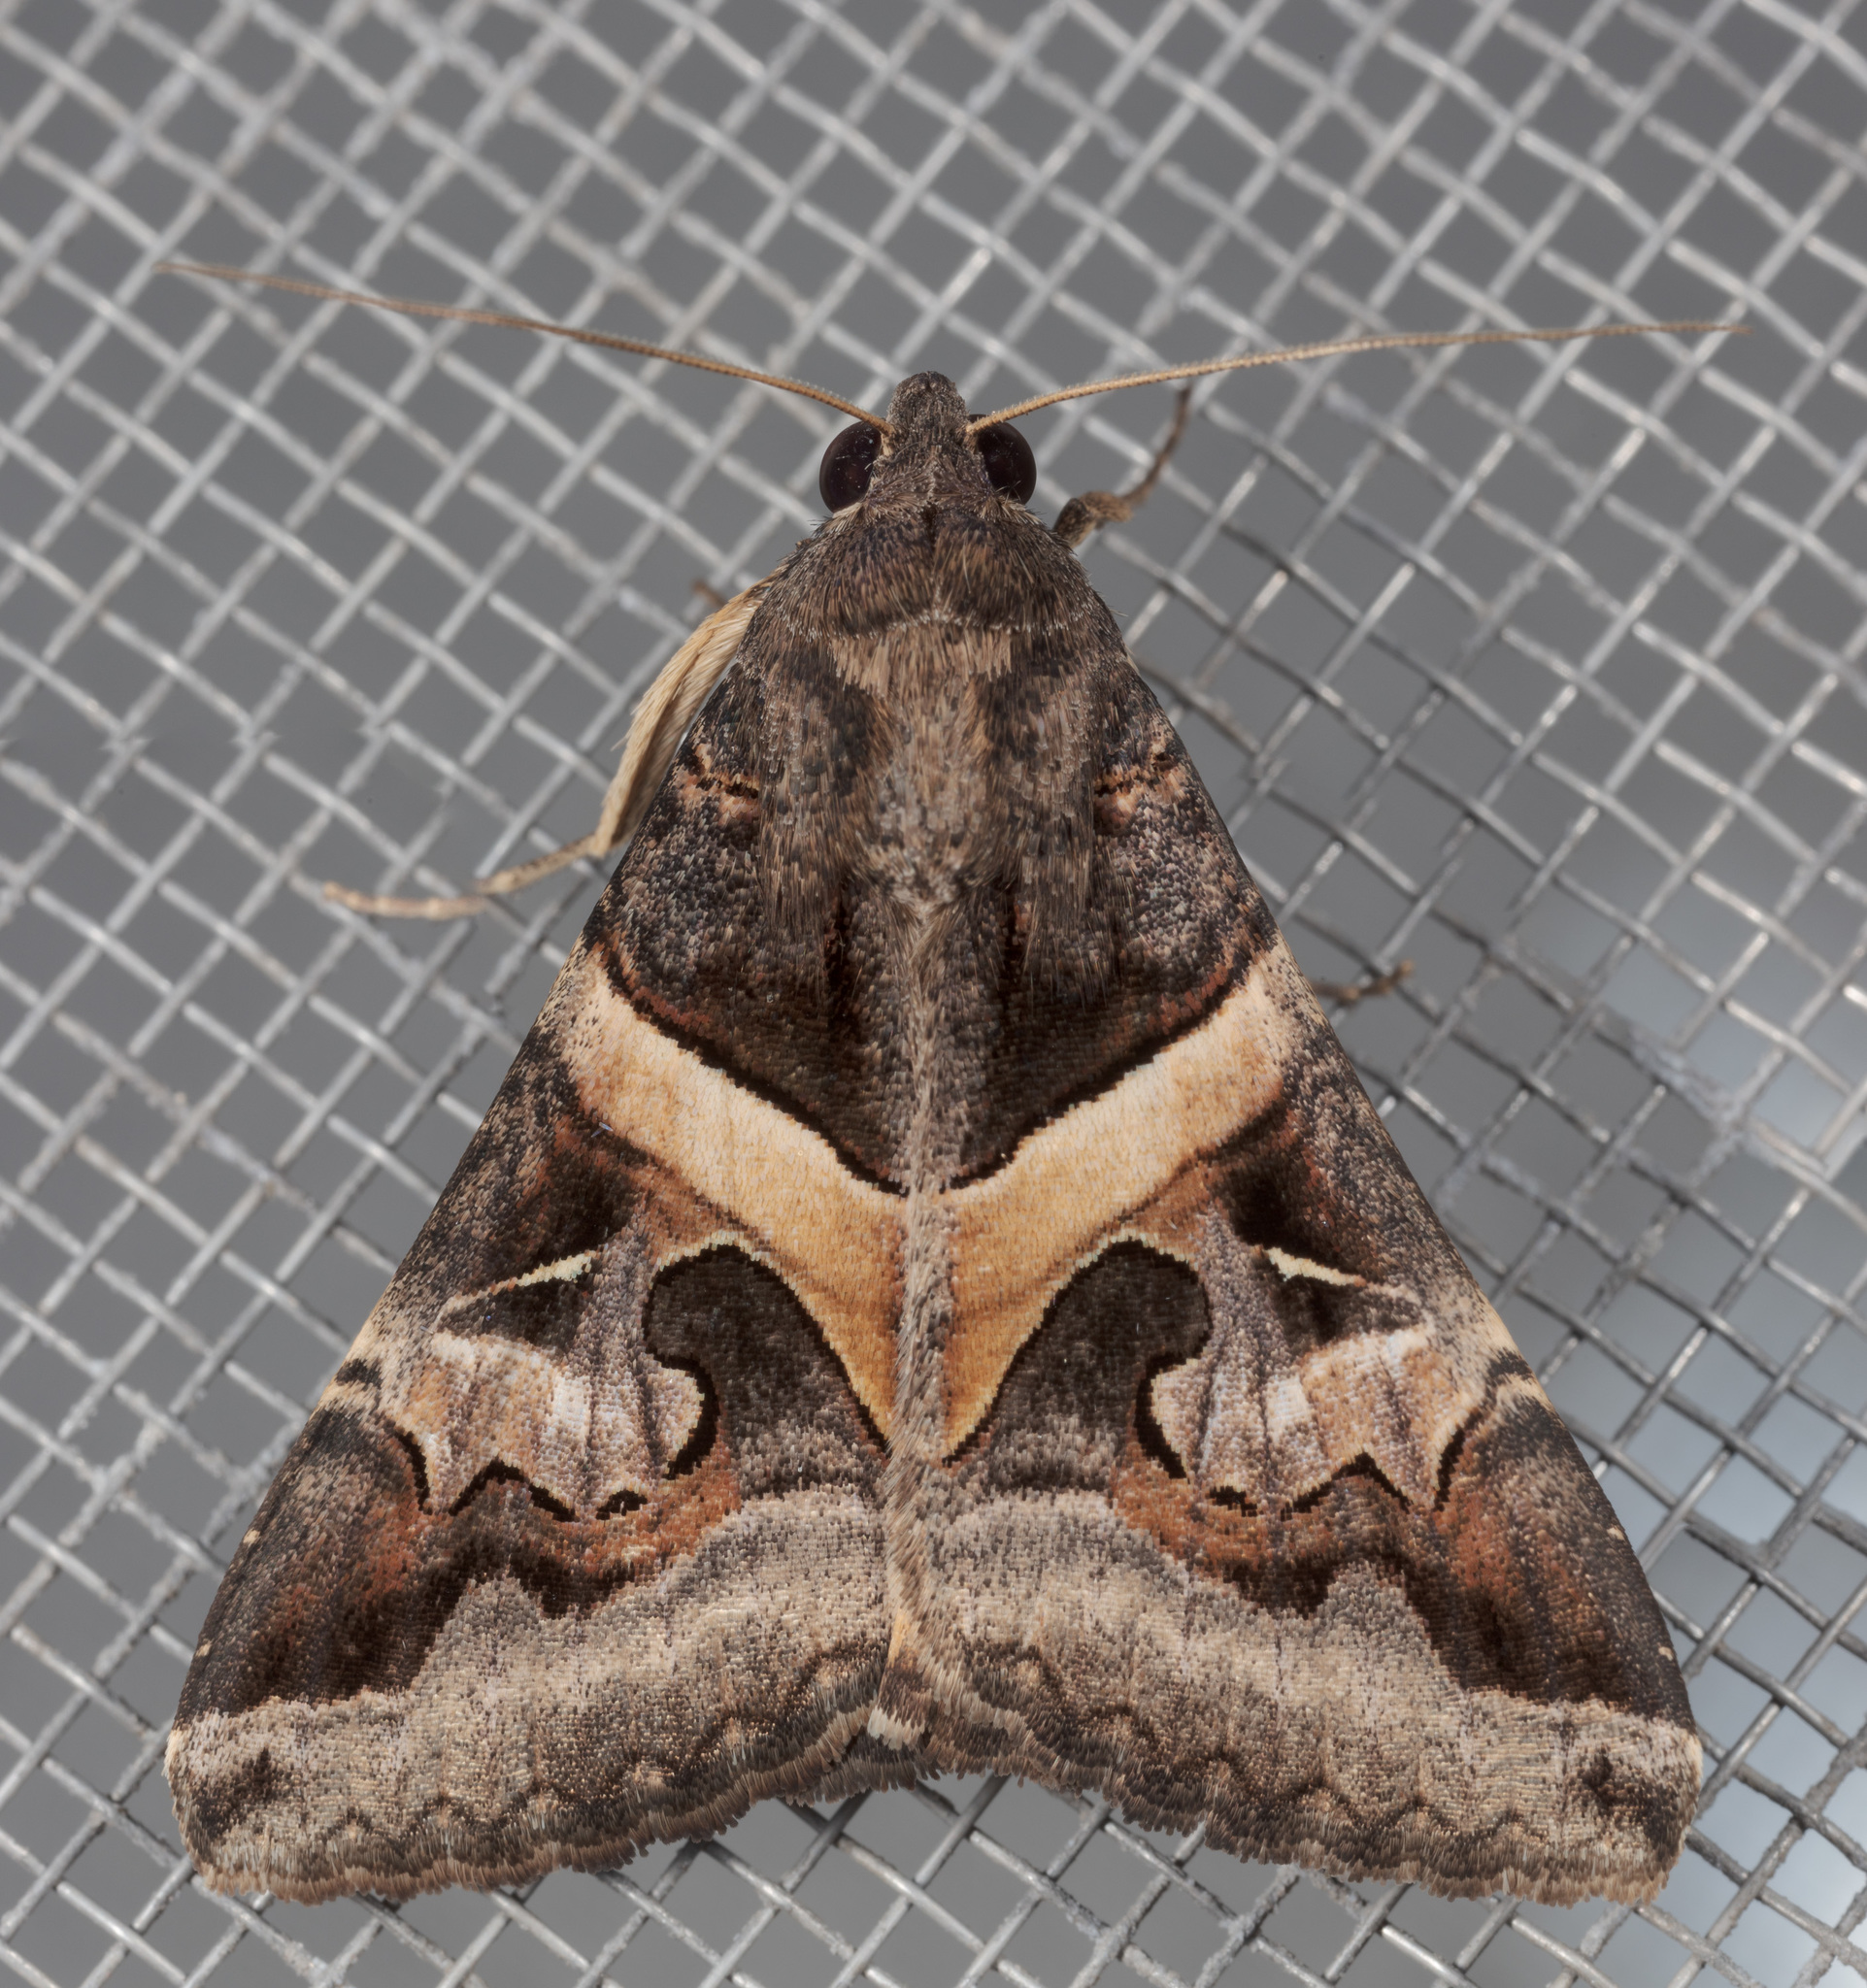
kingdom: Animalia
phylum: Arthropoda
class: Insecta
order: Lepidoptera
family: Erebidae
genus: Melipotis
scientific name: Melipotis indomita
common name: Moth
